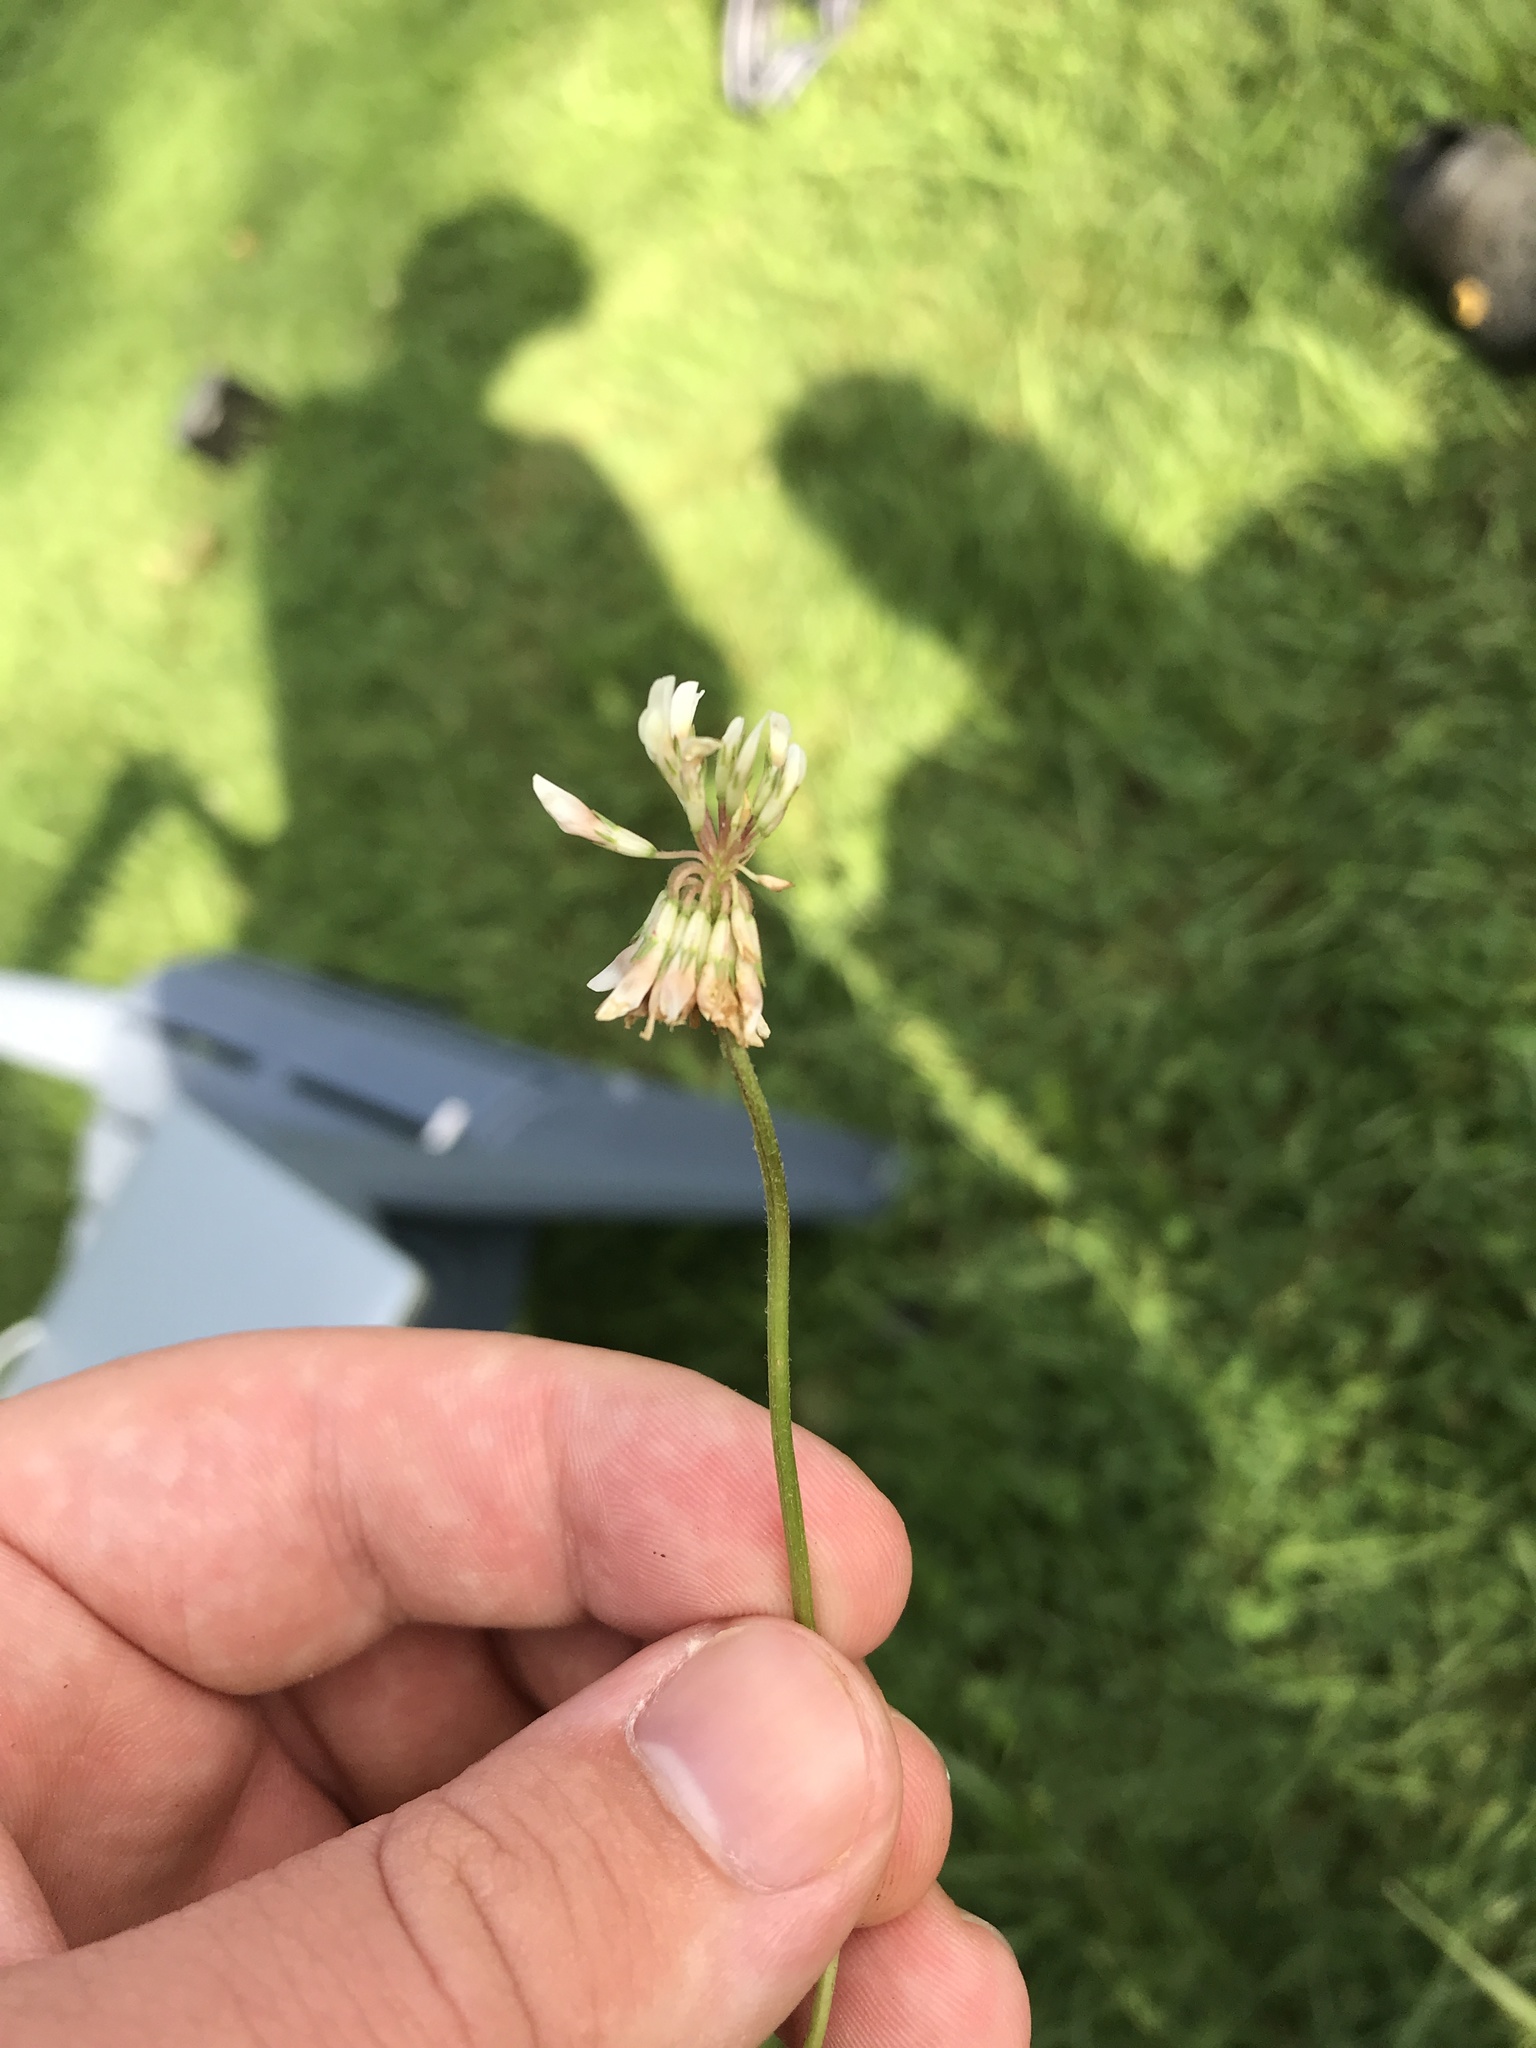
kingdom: Plantae
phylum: Tracheophyta
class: Magnoliopsida
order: Fabales
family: Fabaceae
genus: Trifolium
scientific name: Trifolium repens
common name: White clover
